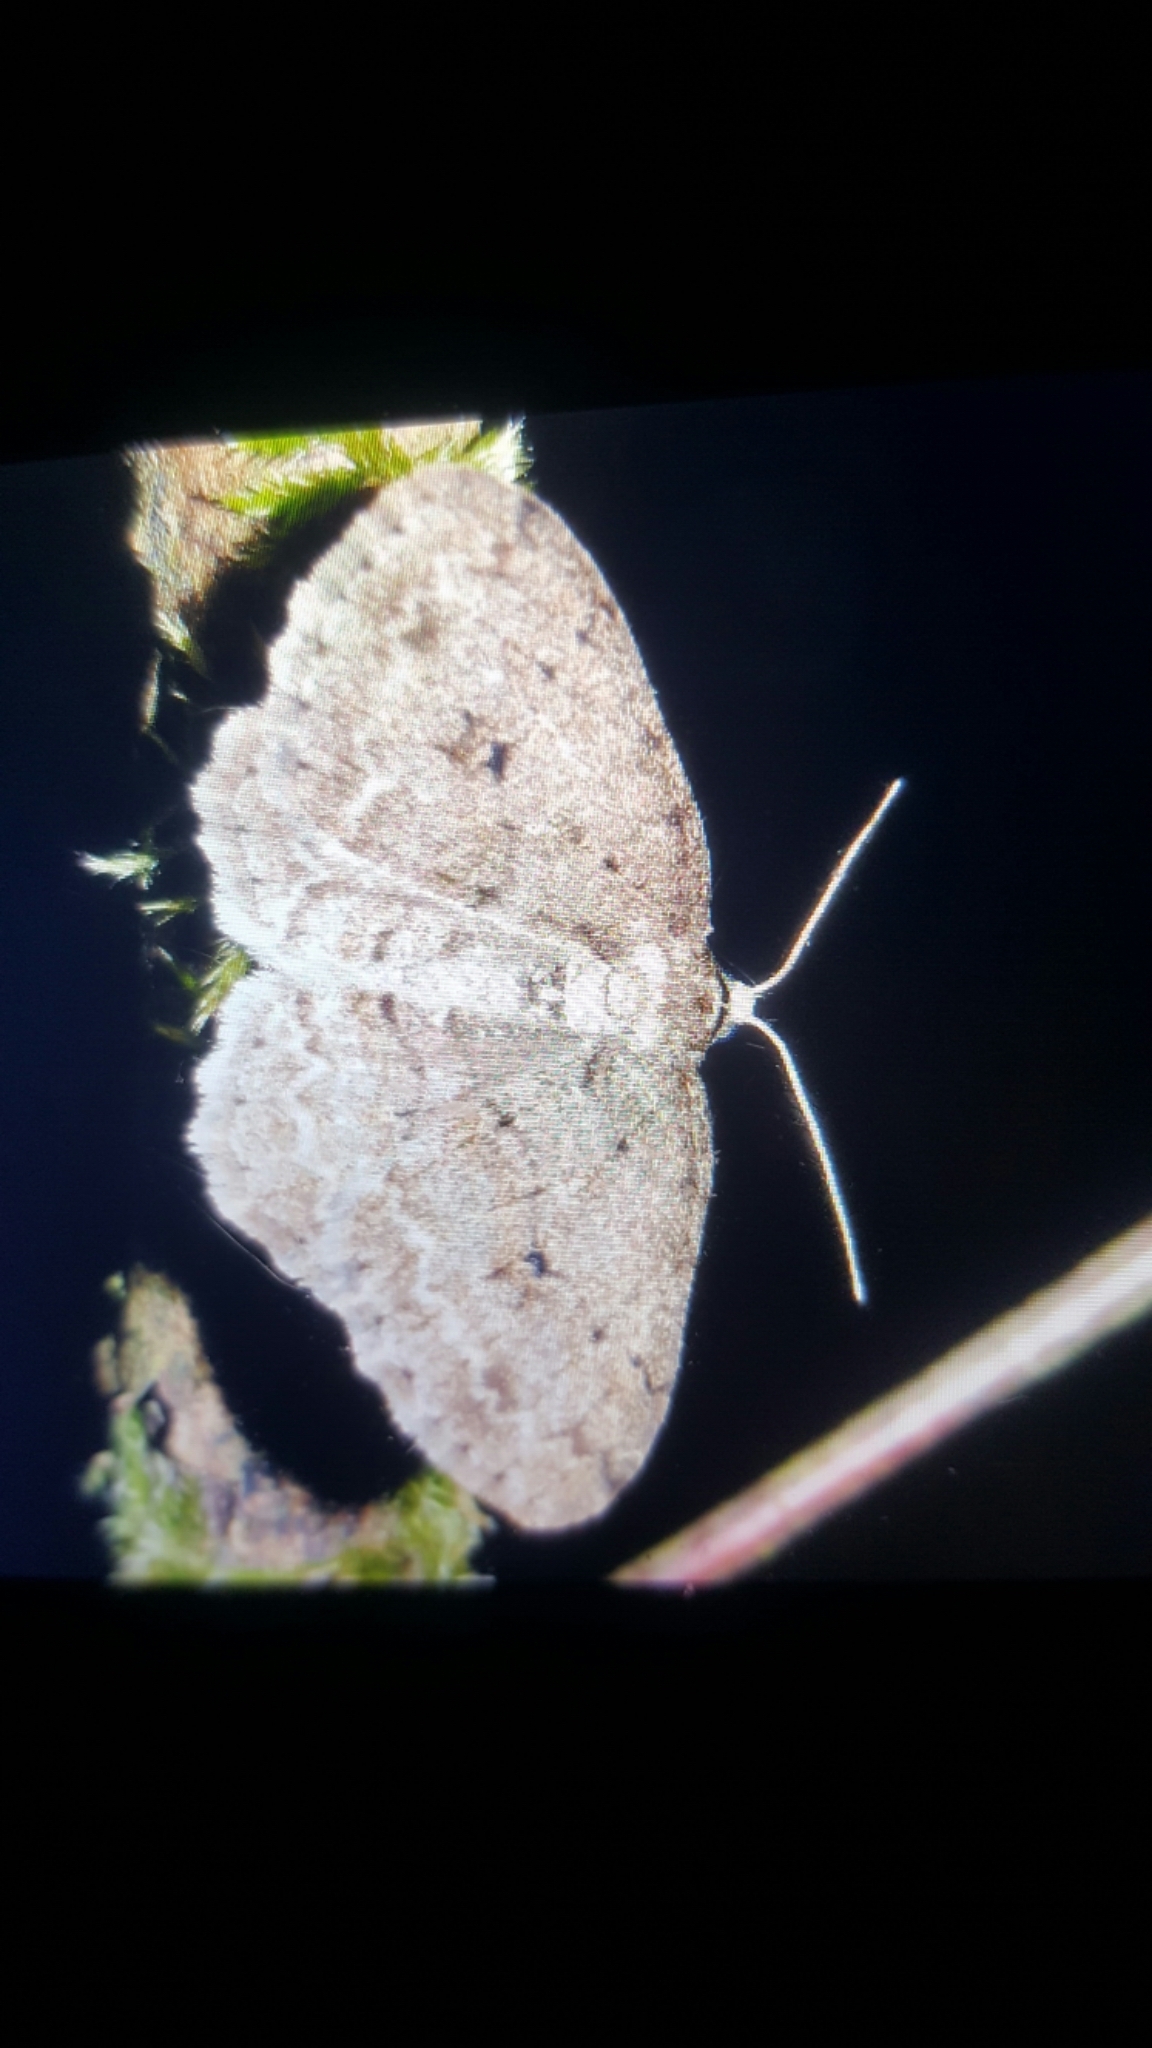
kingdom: Animalia
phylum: Arthropoda
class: Insecta
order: Lepidoptera
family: Geometridae
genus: Ectropis
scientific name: Ectropis crepuscularia
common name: Engrailed
